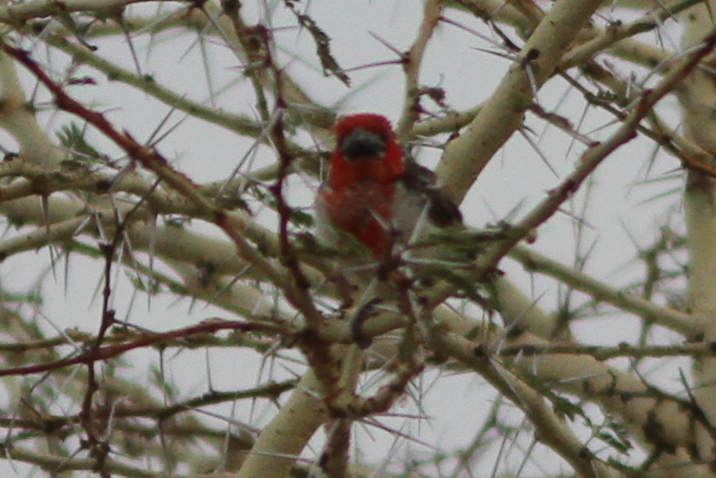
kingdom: Animalia
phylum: Chordata
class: Aves
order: Piciformes
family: Lybiidae
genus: Lybius
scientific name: Lybius vieilloti
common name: Vieillot's barbet
